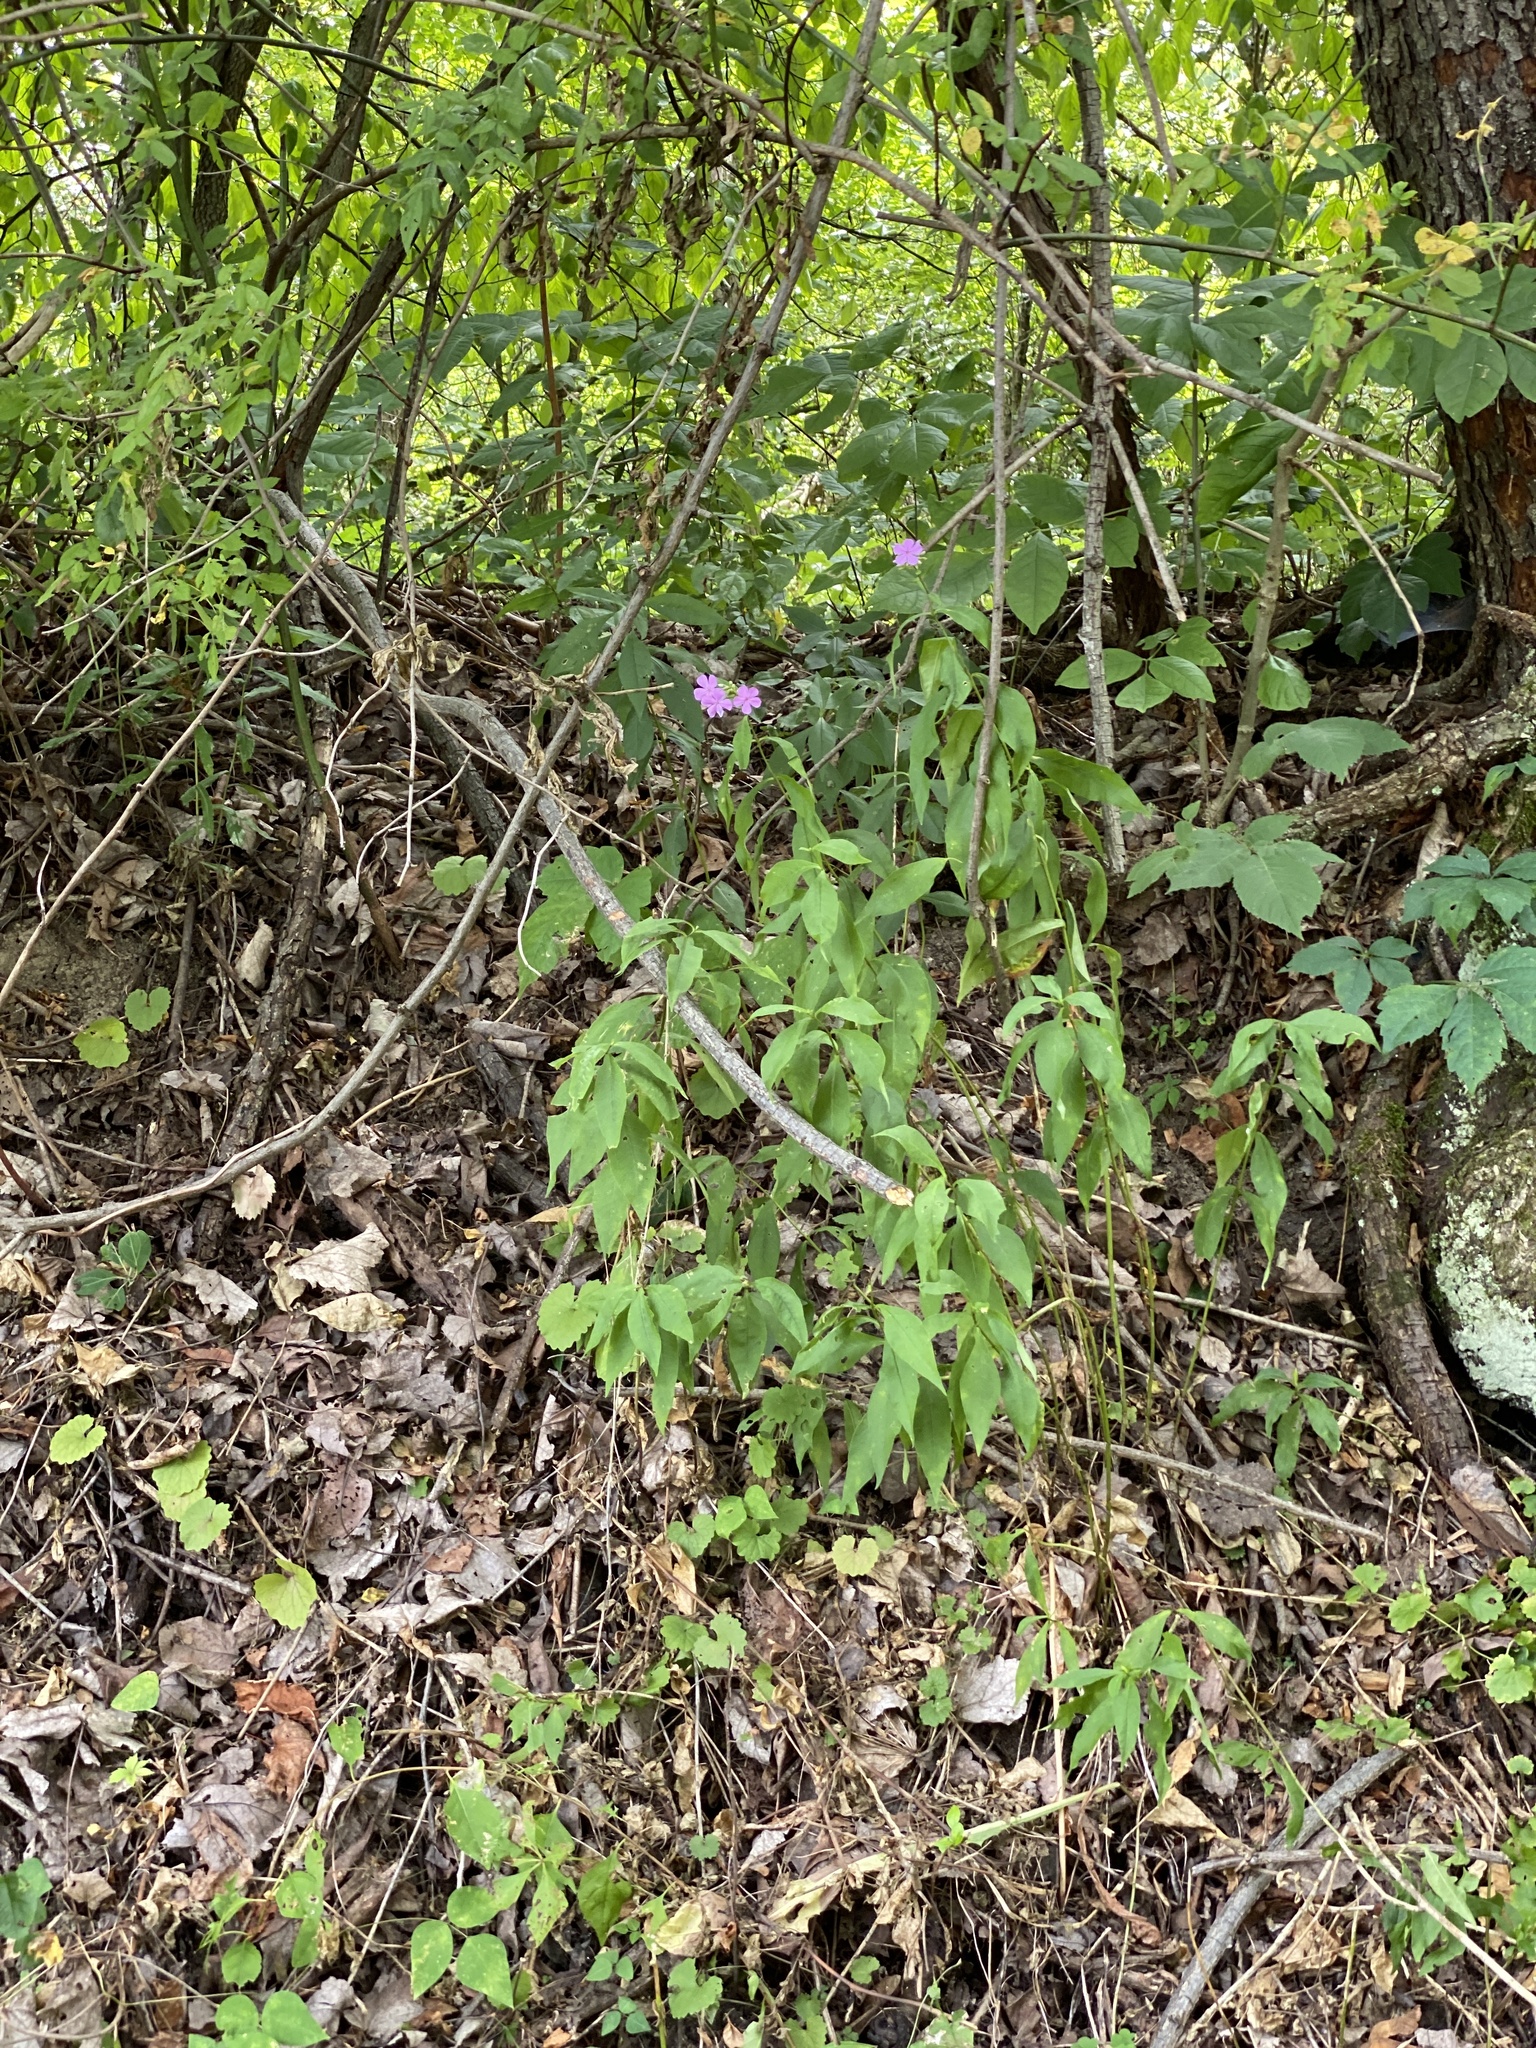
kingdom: Plantae
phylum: Tracheophyta
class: Magnoliopsida
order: Ericales
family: Polemoniaceae
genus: Phlox
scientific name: Phlox paniculata
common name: Fall phlox
